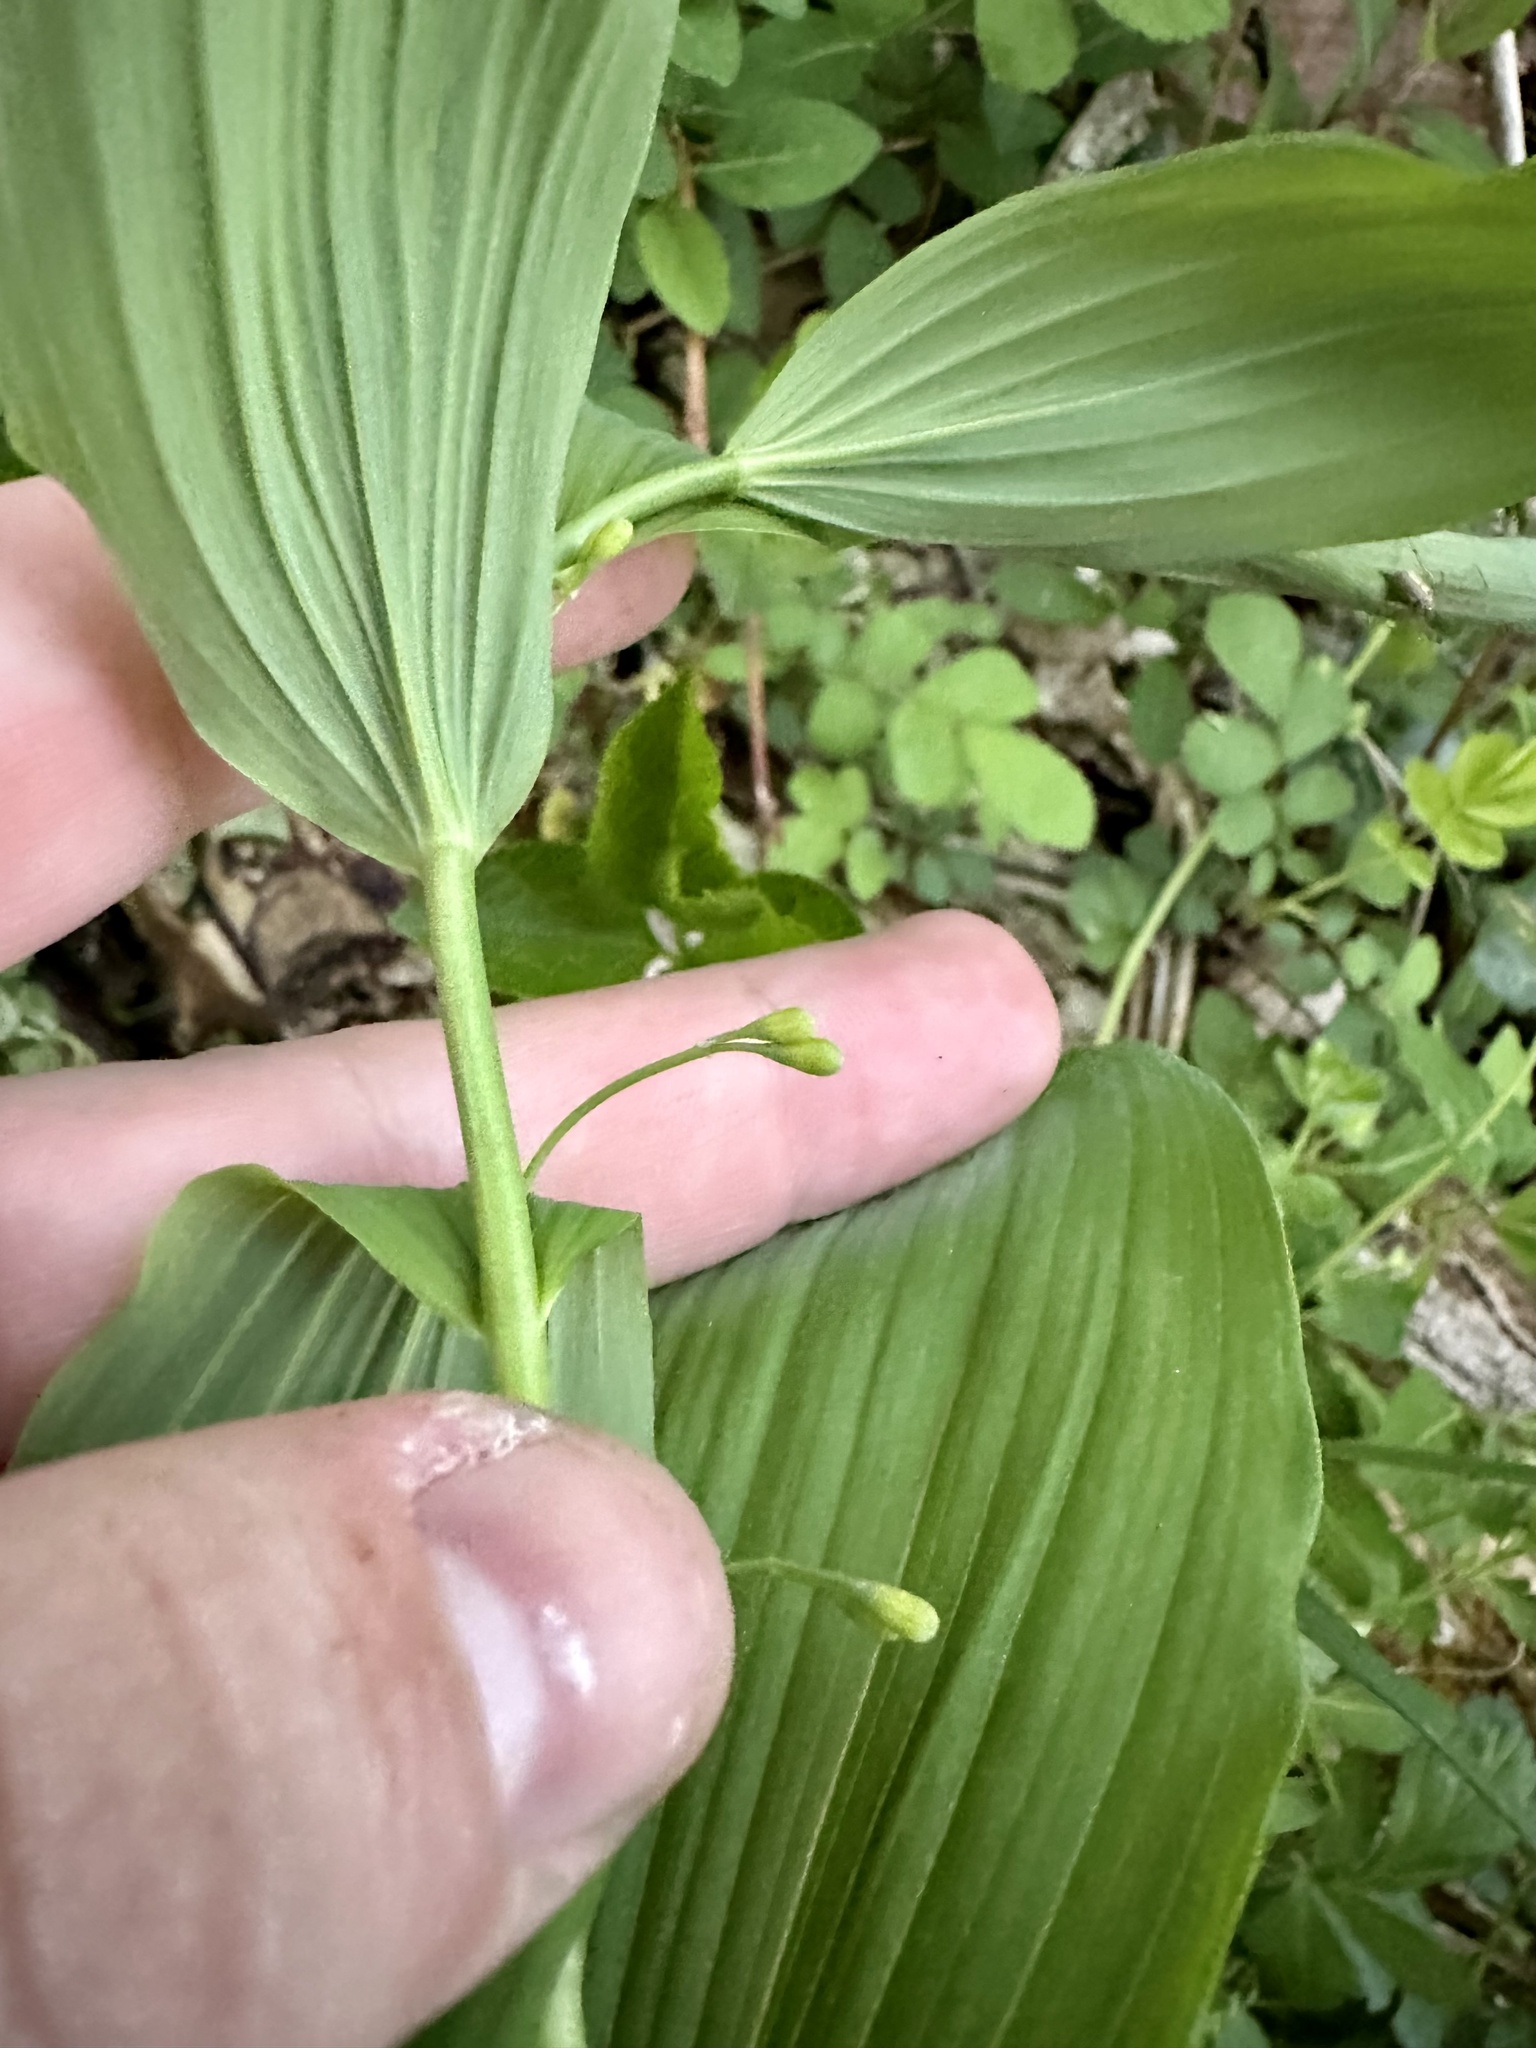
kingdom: Plantae
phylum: Tracheophyta
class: Liliopsida
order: Asparagales
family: Asparagaceae
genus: Polygonatum
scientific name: Polygonatum biflorum
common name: American solomon's-seal
